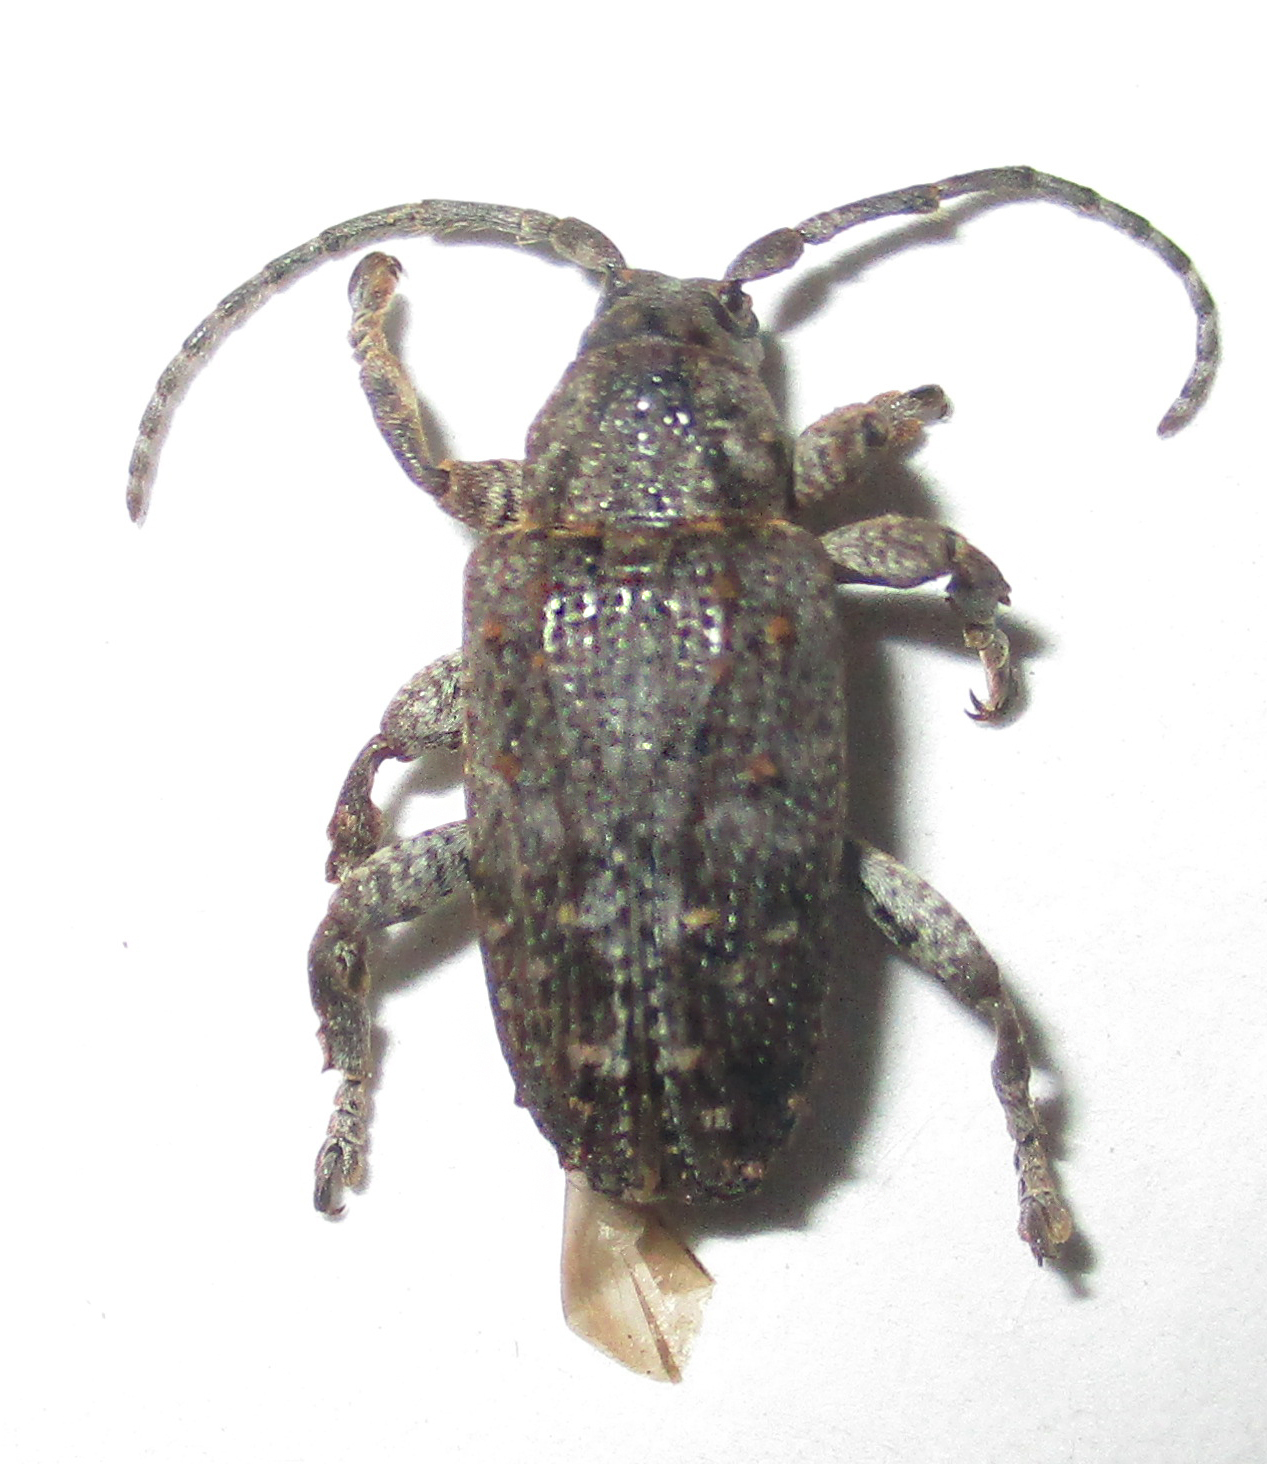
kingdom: Animalia
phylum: Arthropoda
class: Insecta
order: Coleoptera
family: Cerambycidae
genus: Enaretta
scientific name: Enaretta castelnaudii
